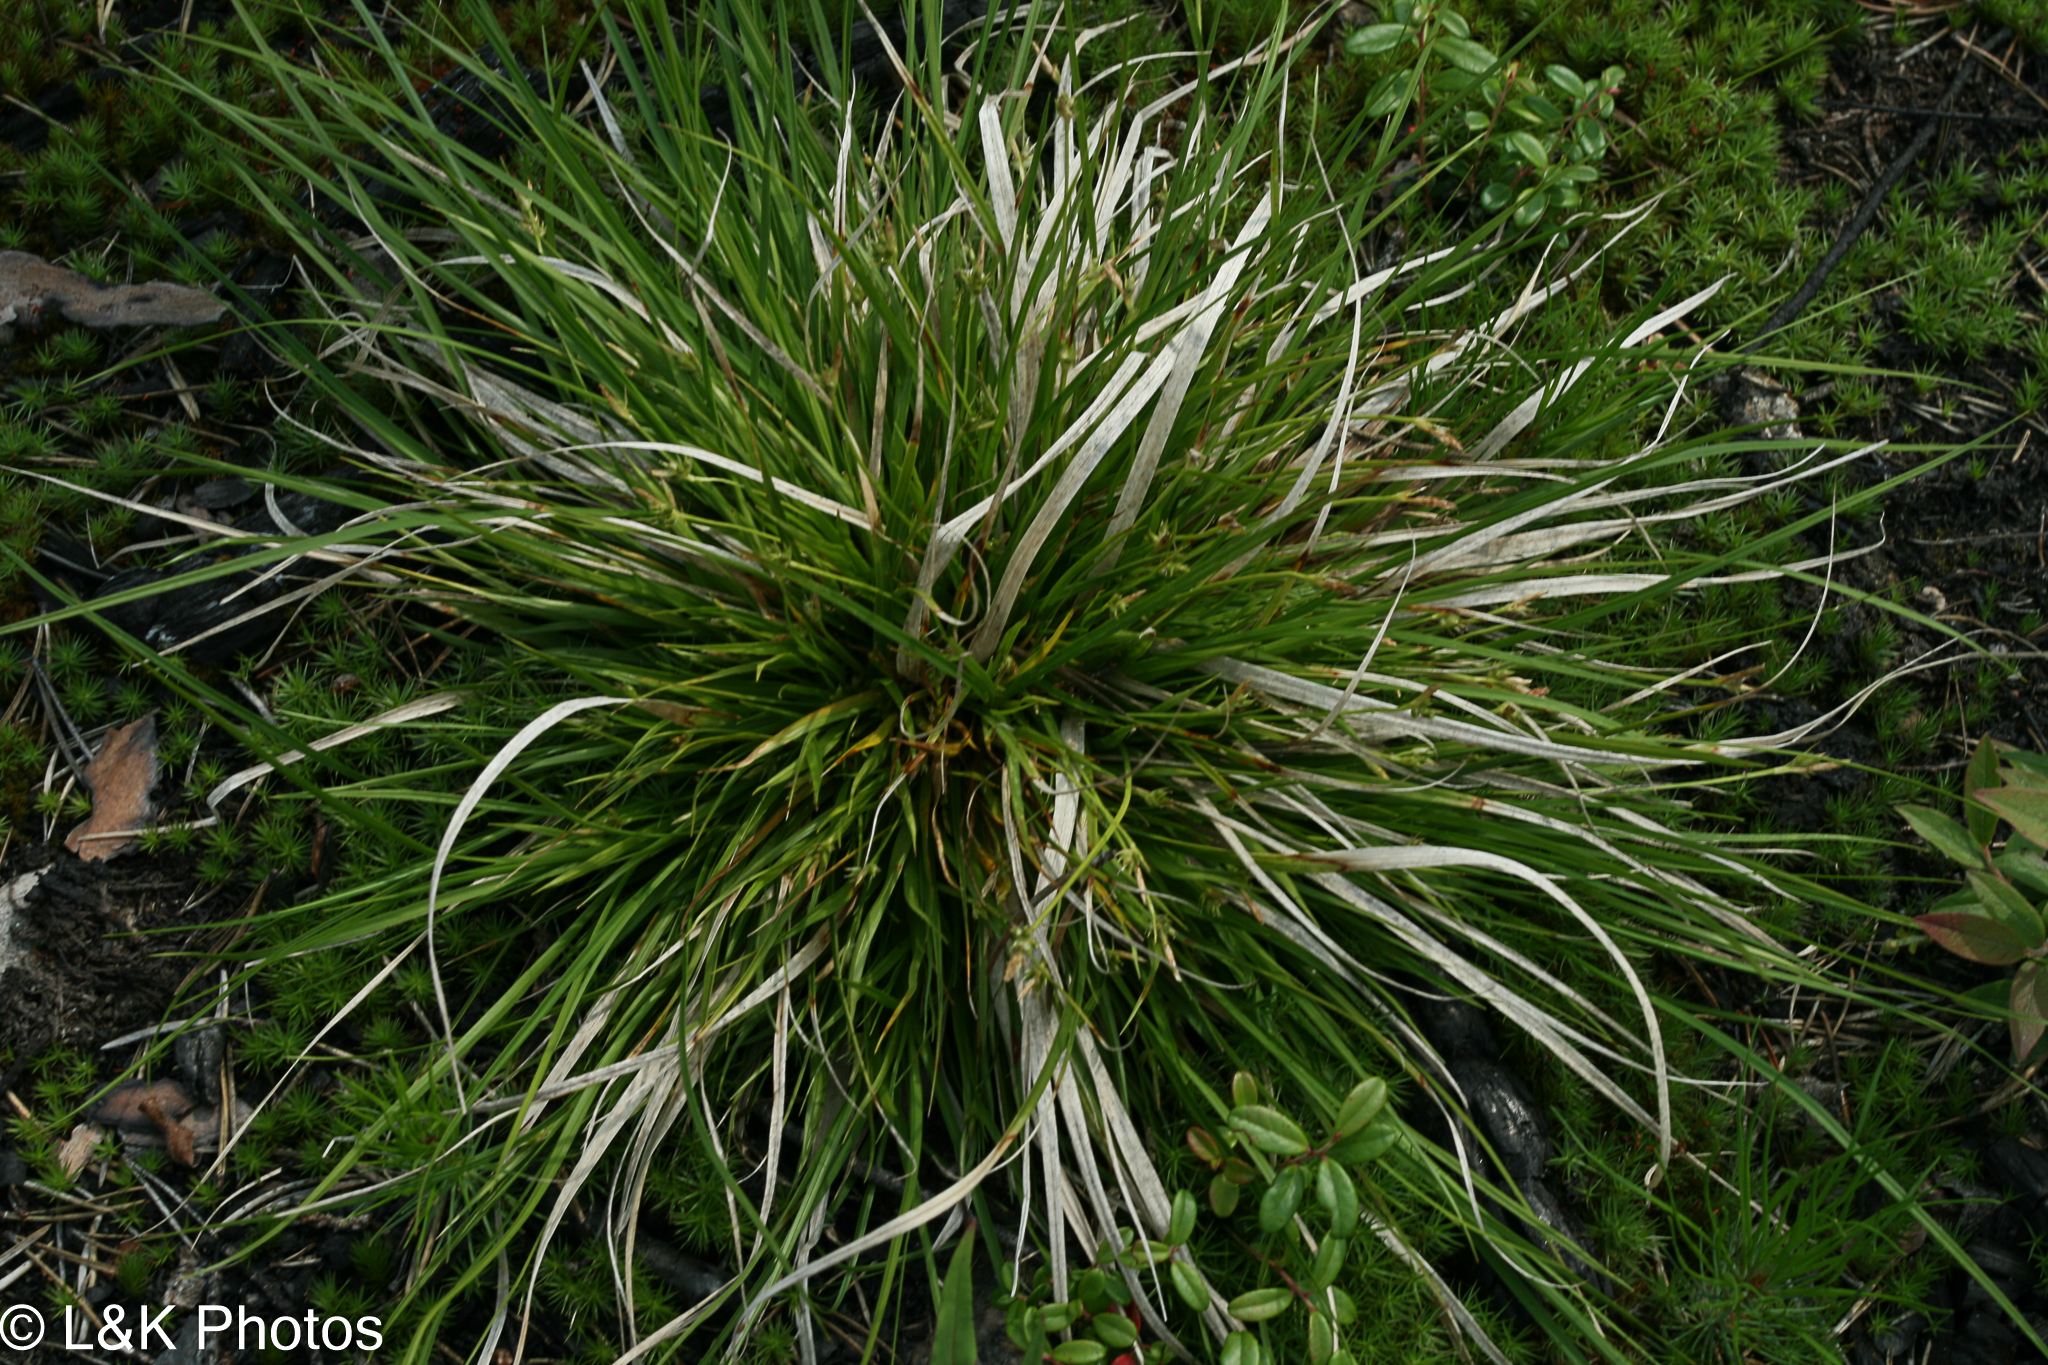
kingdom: Plantae
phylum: Tracheophyta
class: Liliopsida
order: Poales
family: Cyperaceae
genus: Carex
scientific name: Carex tonsa
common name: Bald sedge
